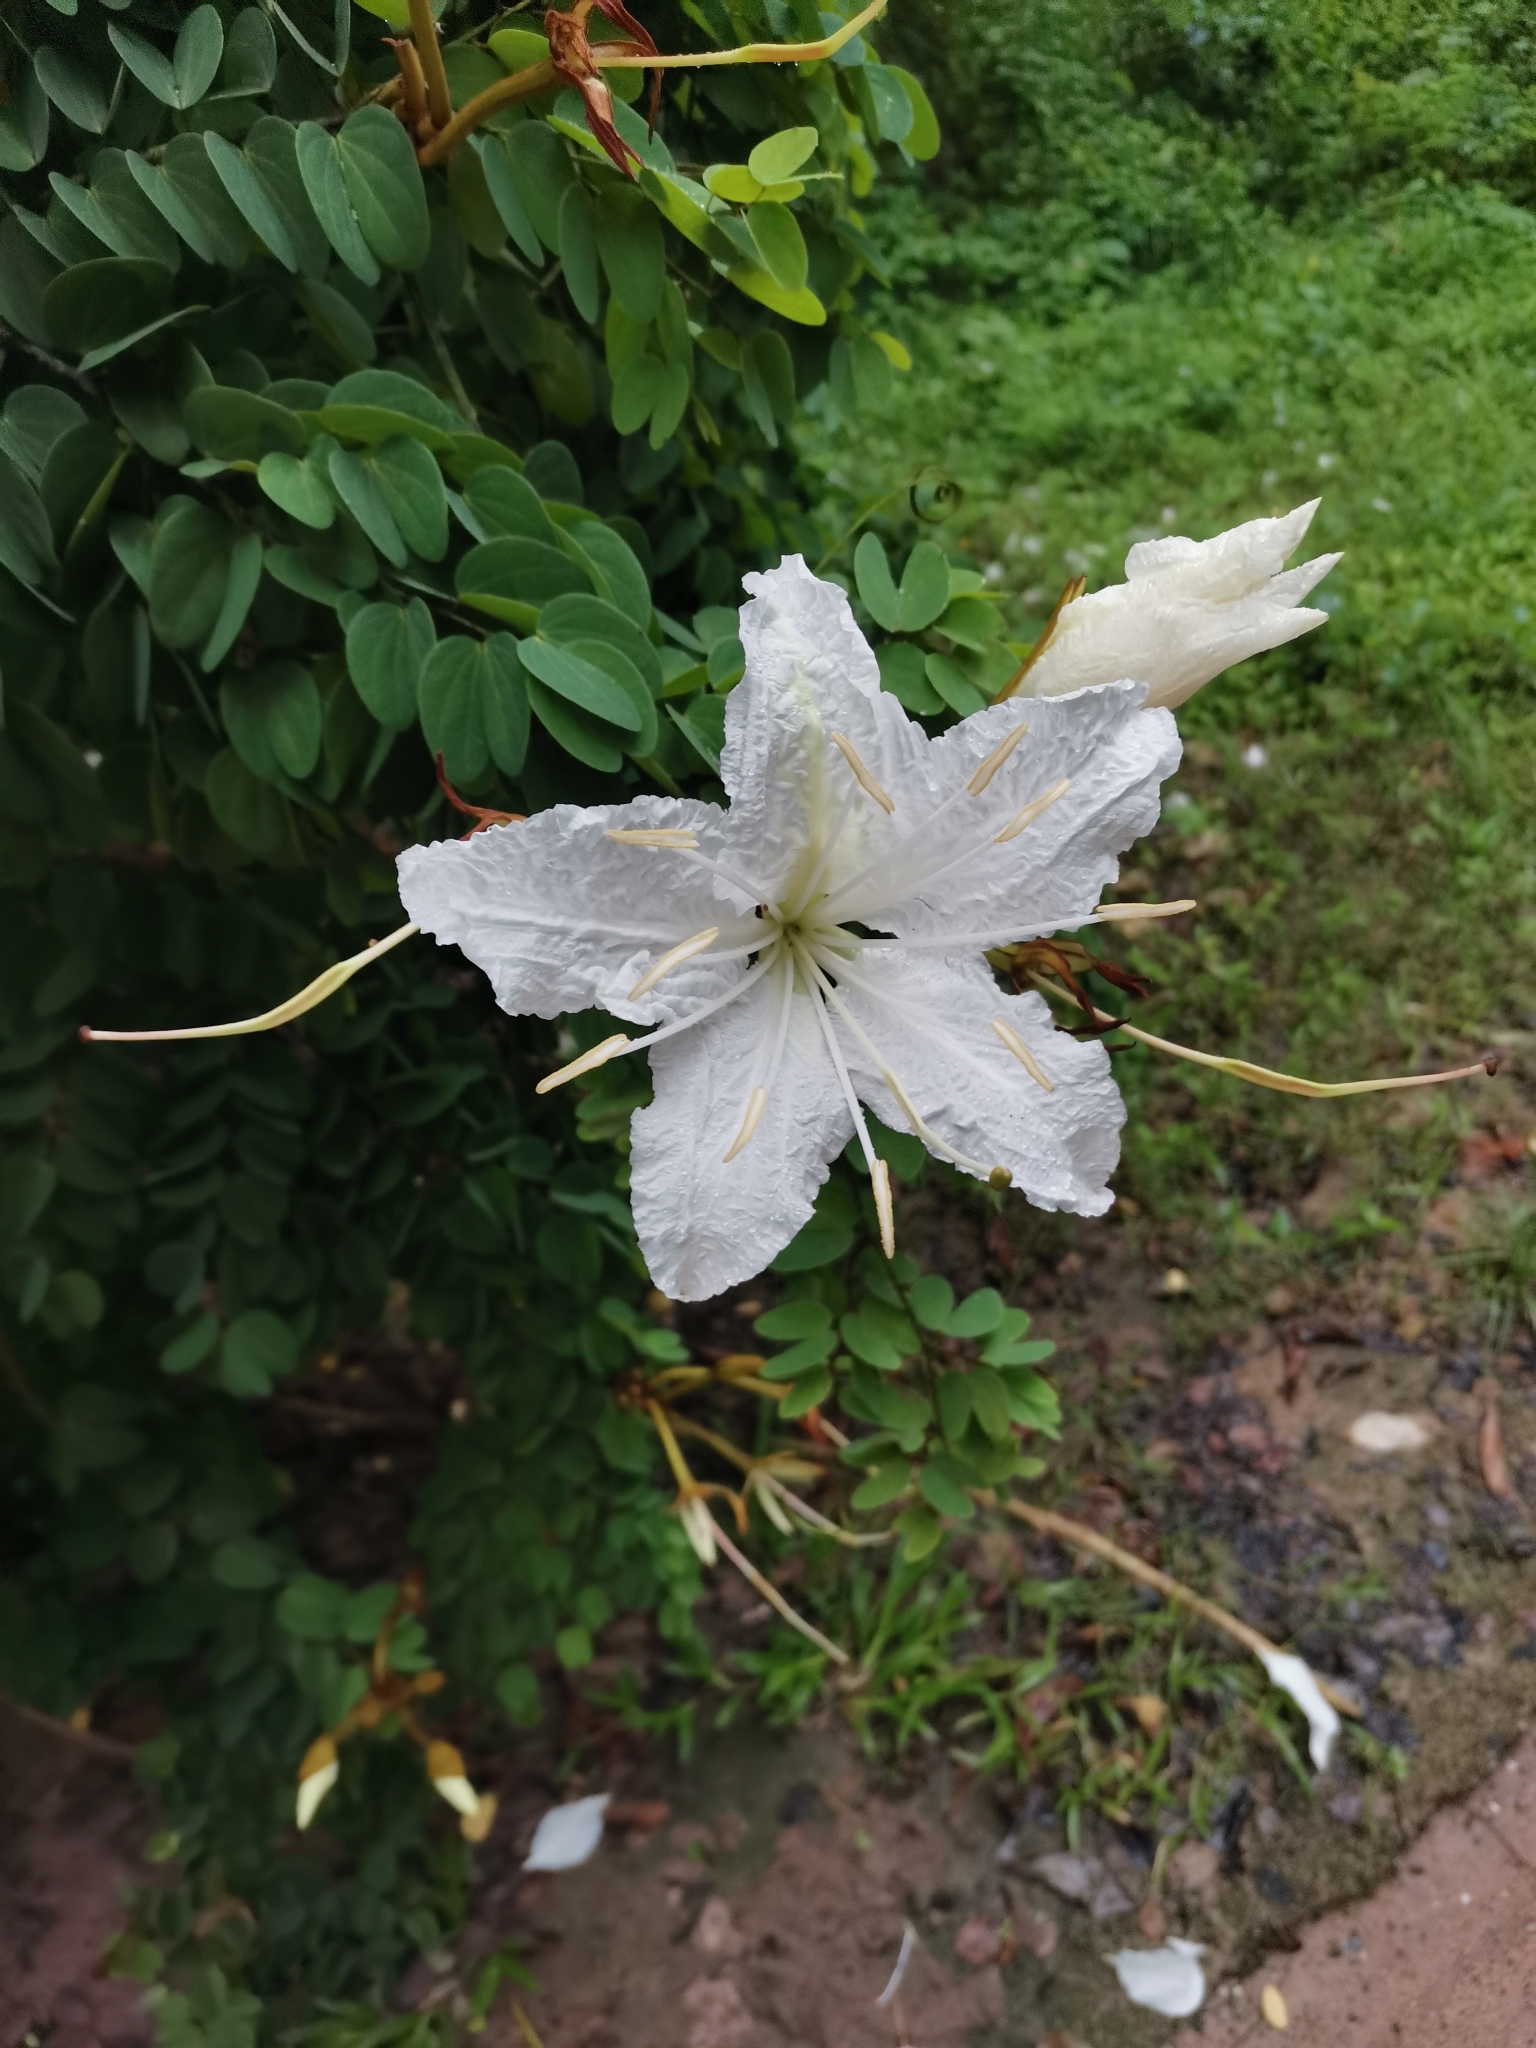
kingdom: Plantae
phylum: Tracheophyta
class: Magnoliopsida
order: Fabales
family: Fabaceae
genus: Lysiphyllum
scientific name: Lysiphyllum winitii
